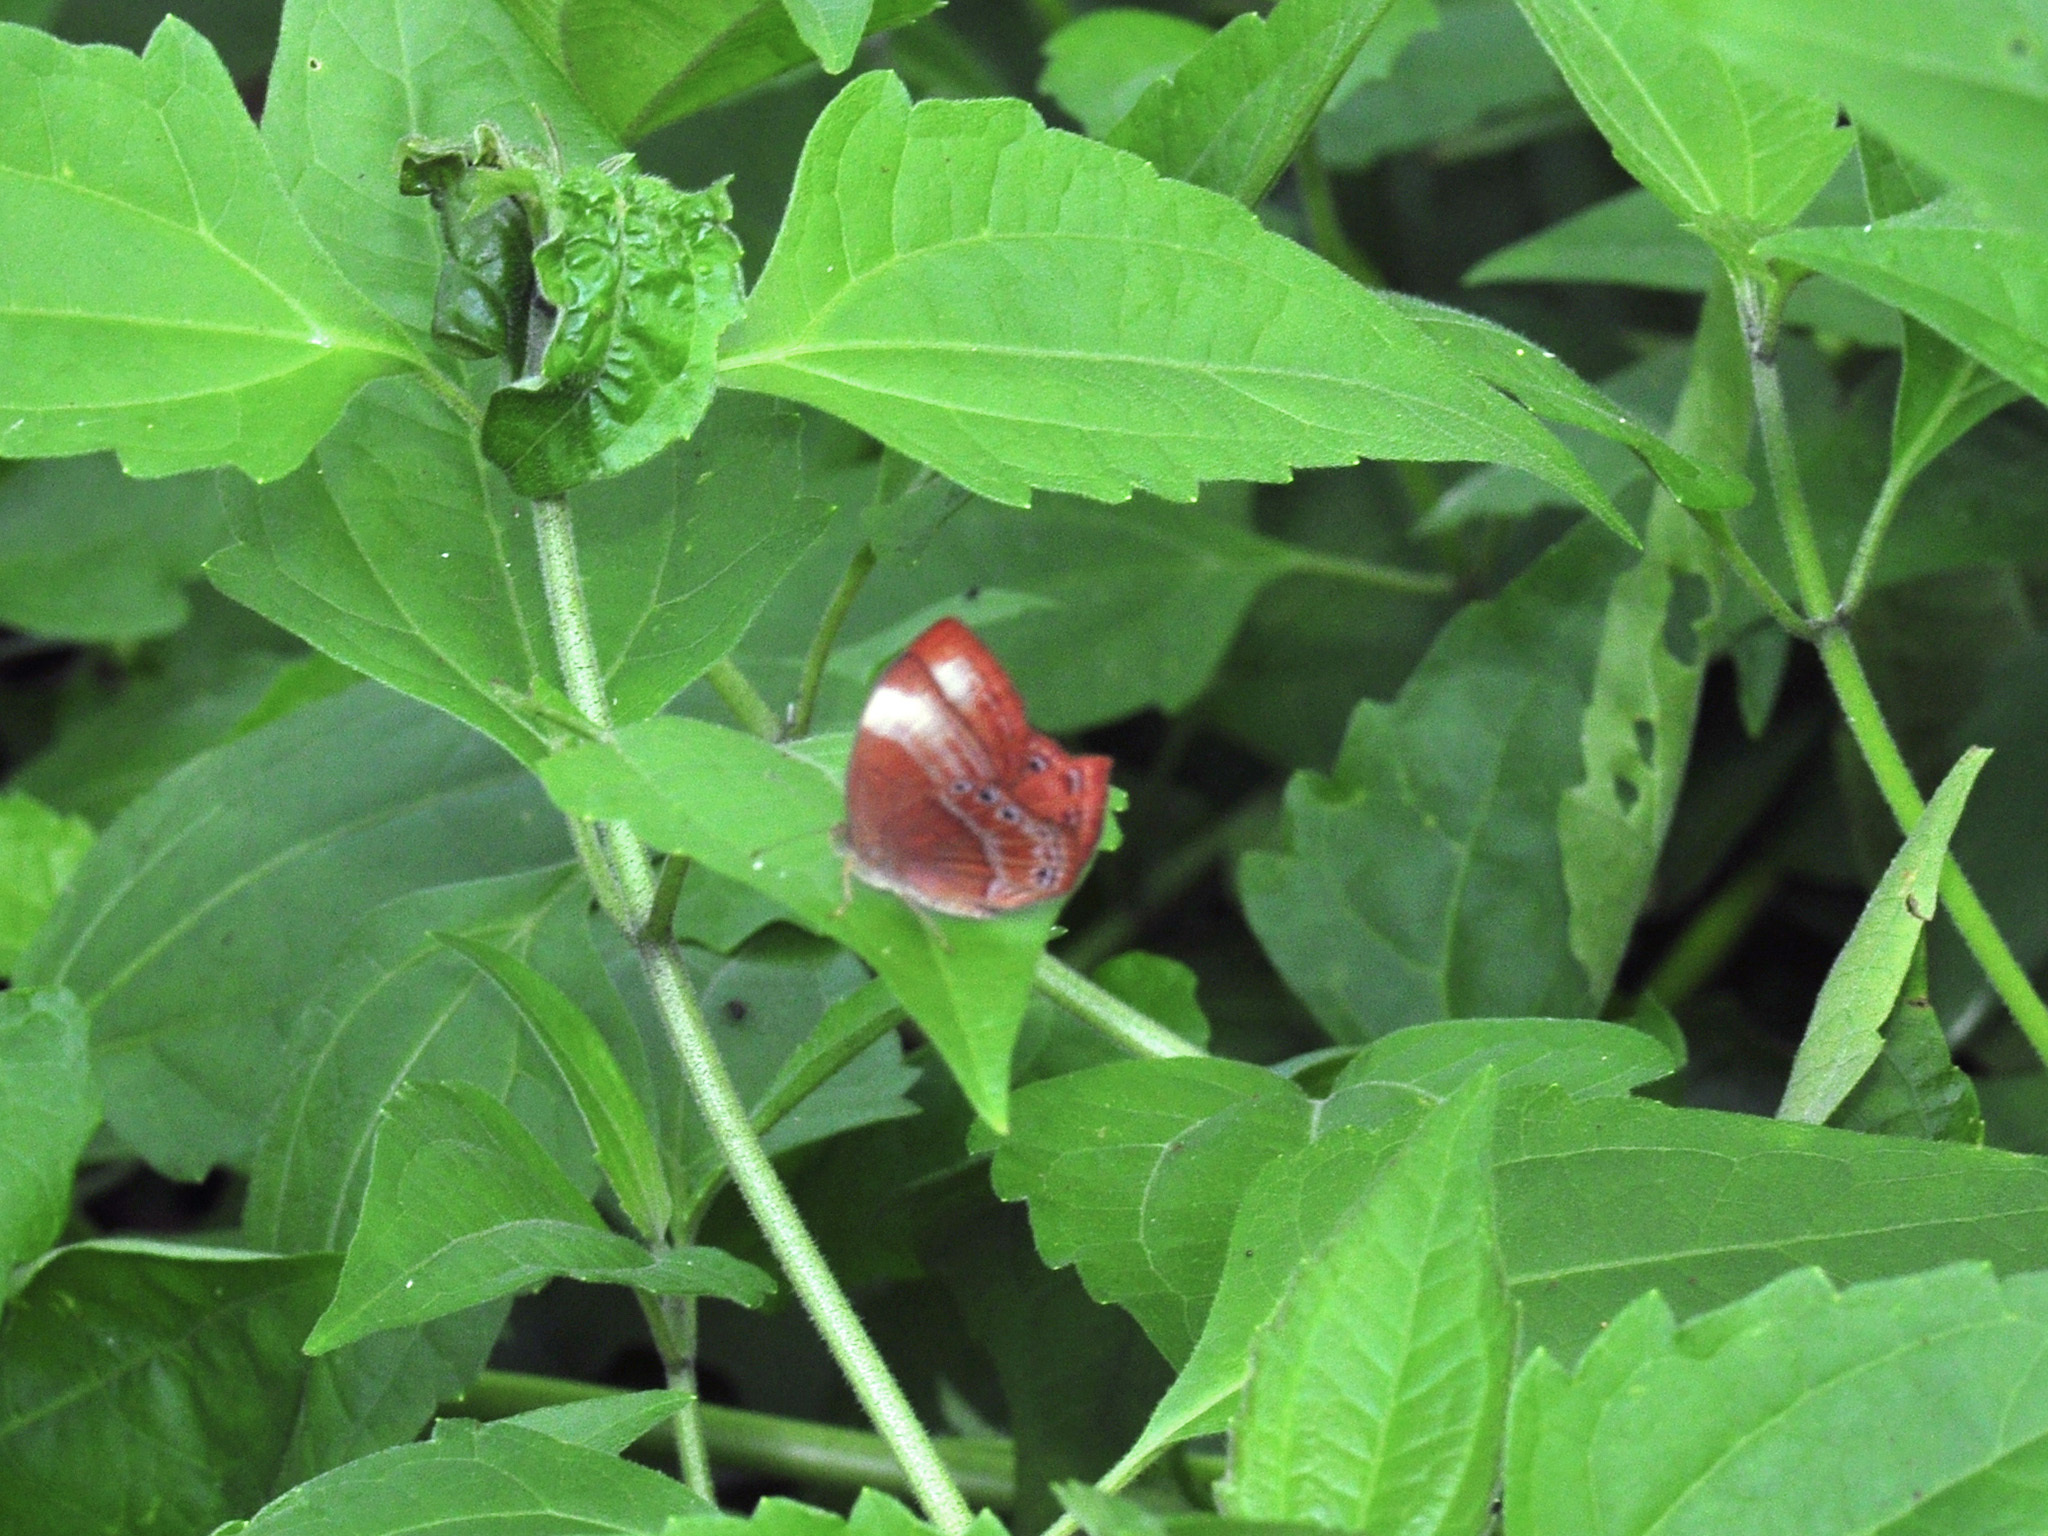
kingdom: Animalia
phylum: Arthropoda
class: Insecta
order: Lepidoptera
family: Lycaenidae
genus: Abisara
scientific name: Abisara saturata
